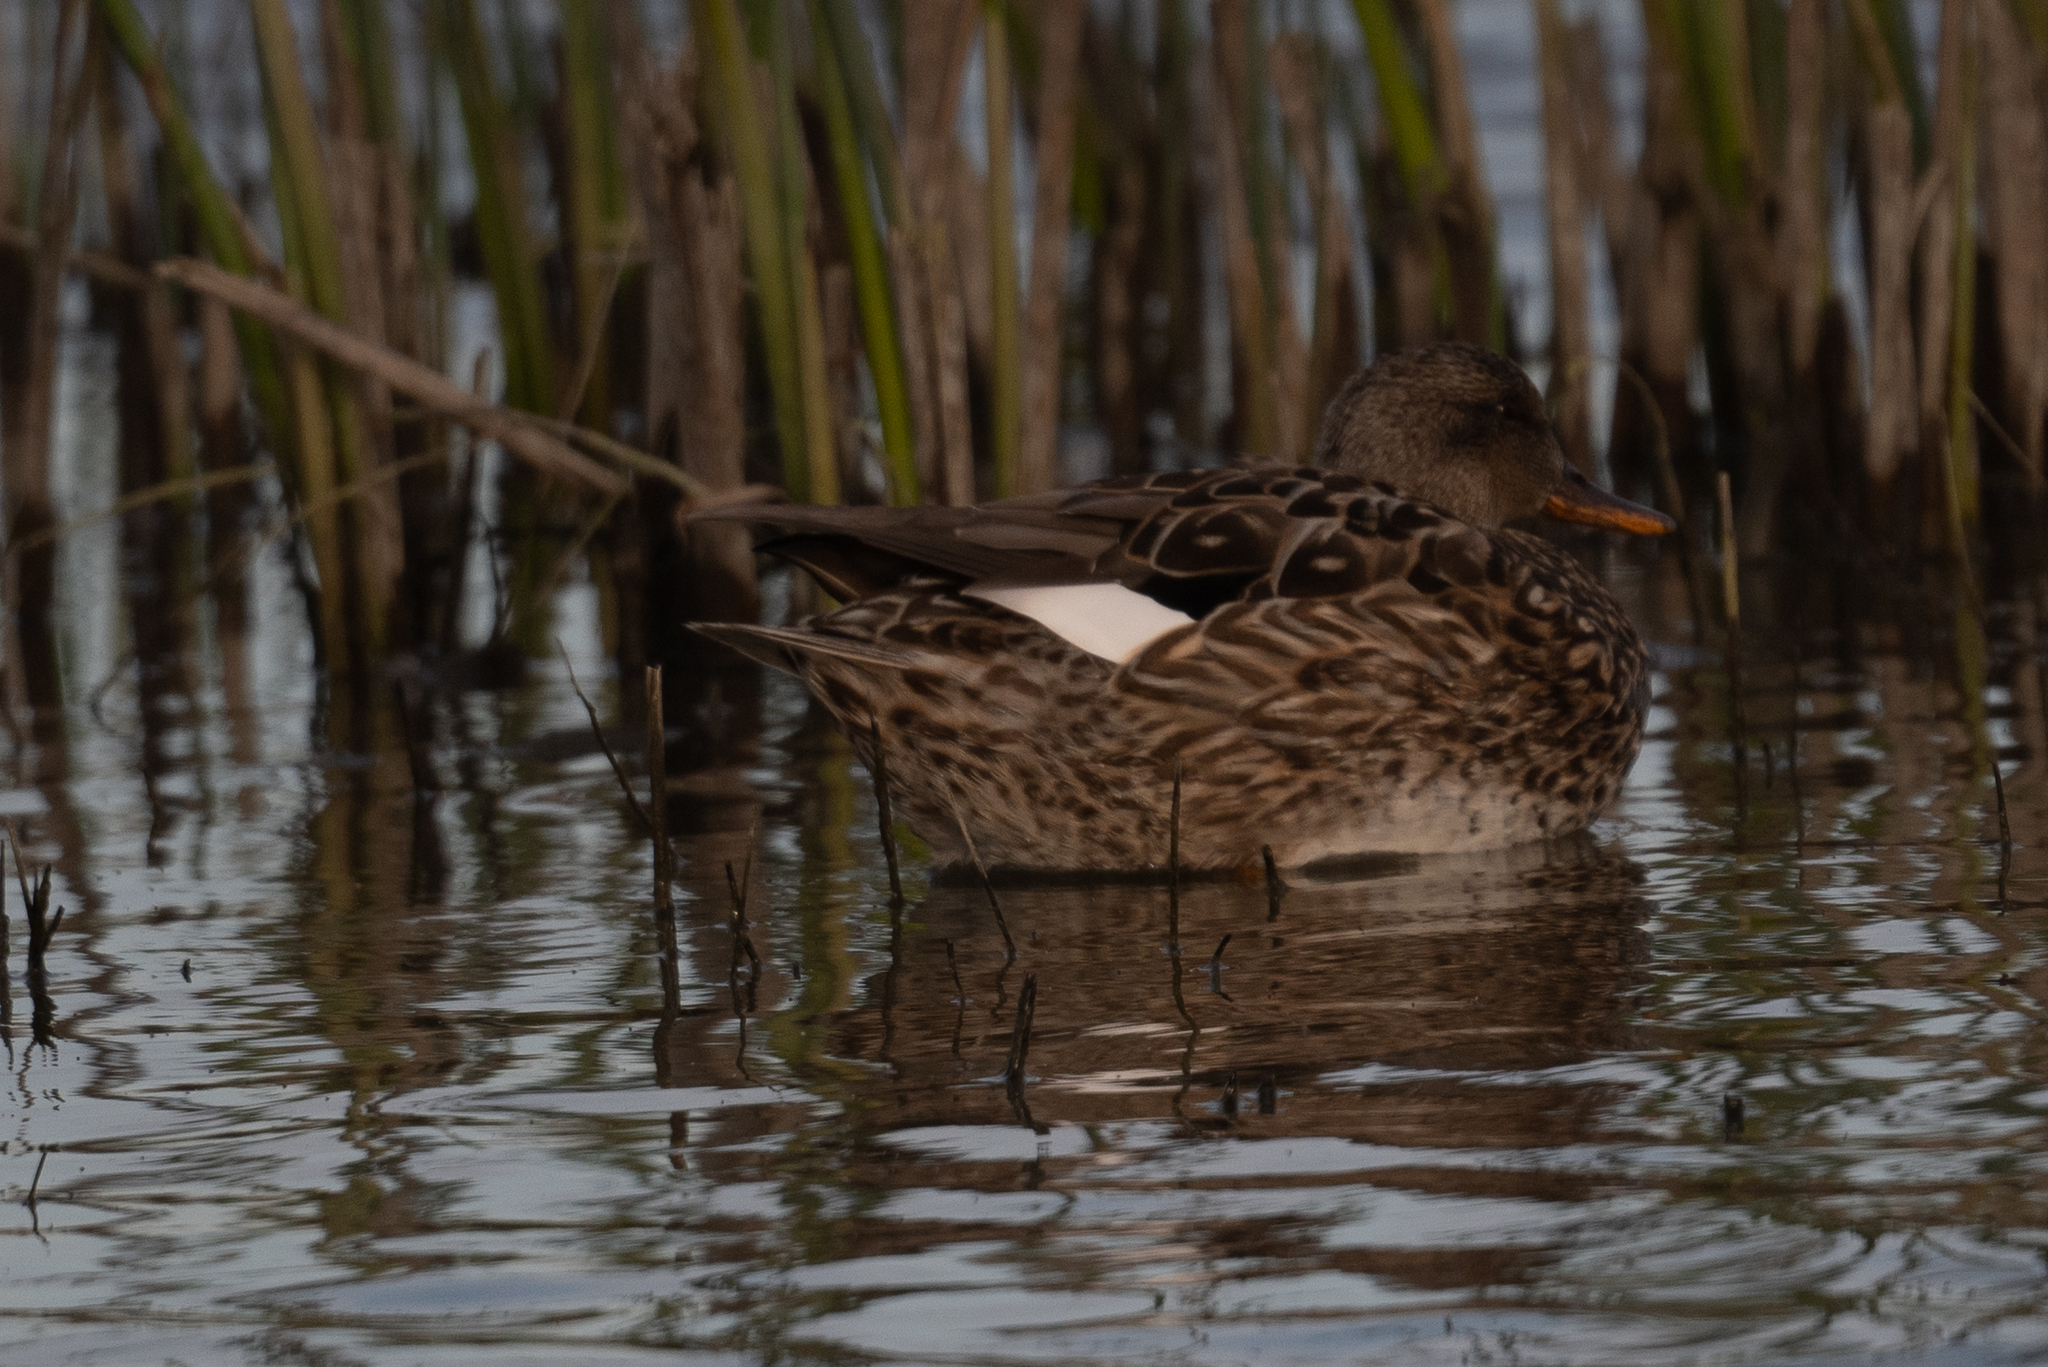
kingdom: Animalia
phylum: Chordata
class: Aves
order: Anseriformes
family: Anatidae
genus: Mareca
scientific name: Mareca strepera
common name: Gadwall
